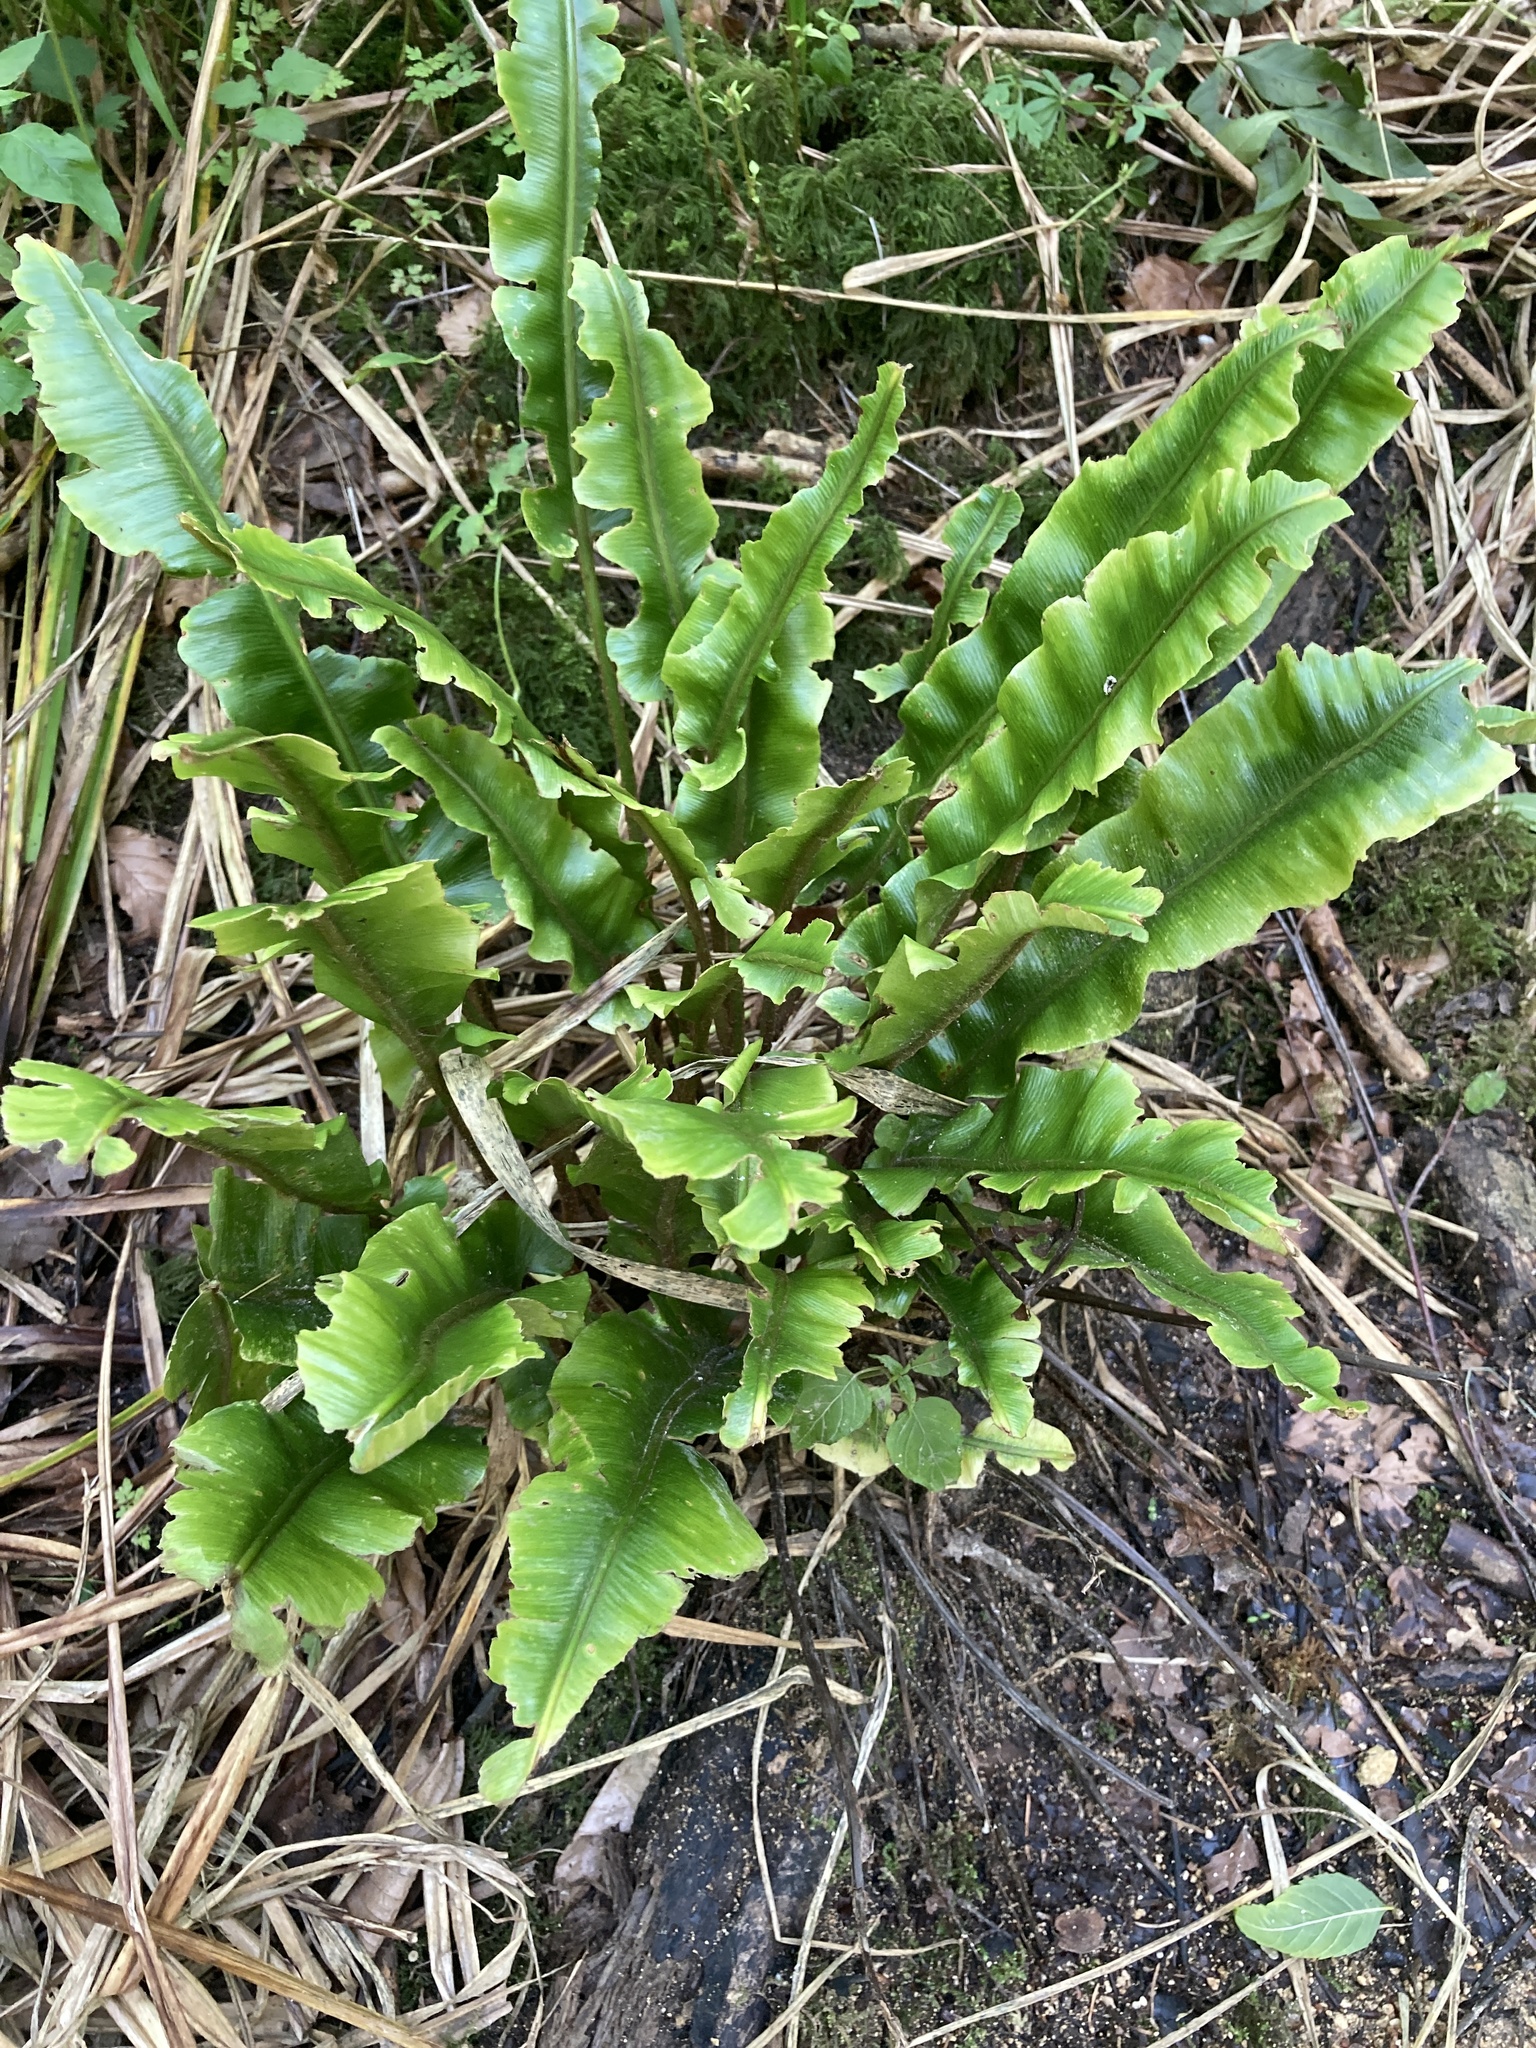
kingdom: Plantae
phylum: Tracheophyta
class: Polypodiopsida
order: Polypodiales
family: Aspleniaceae
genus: Asplenium
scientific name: Asplenium scolopendrium
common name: Hart's-tongue fern
